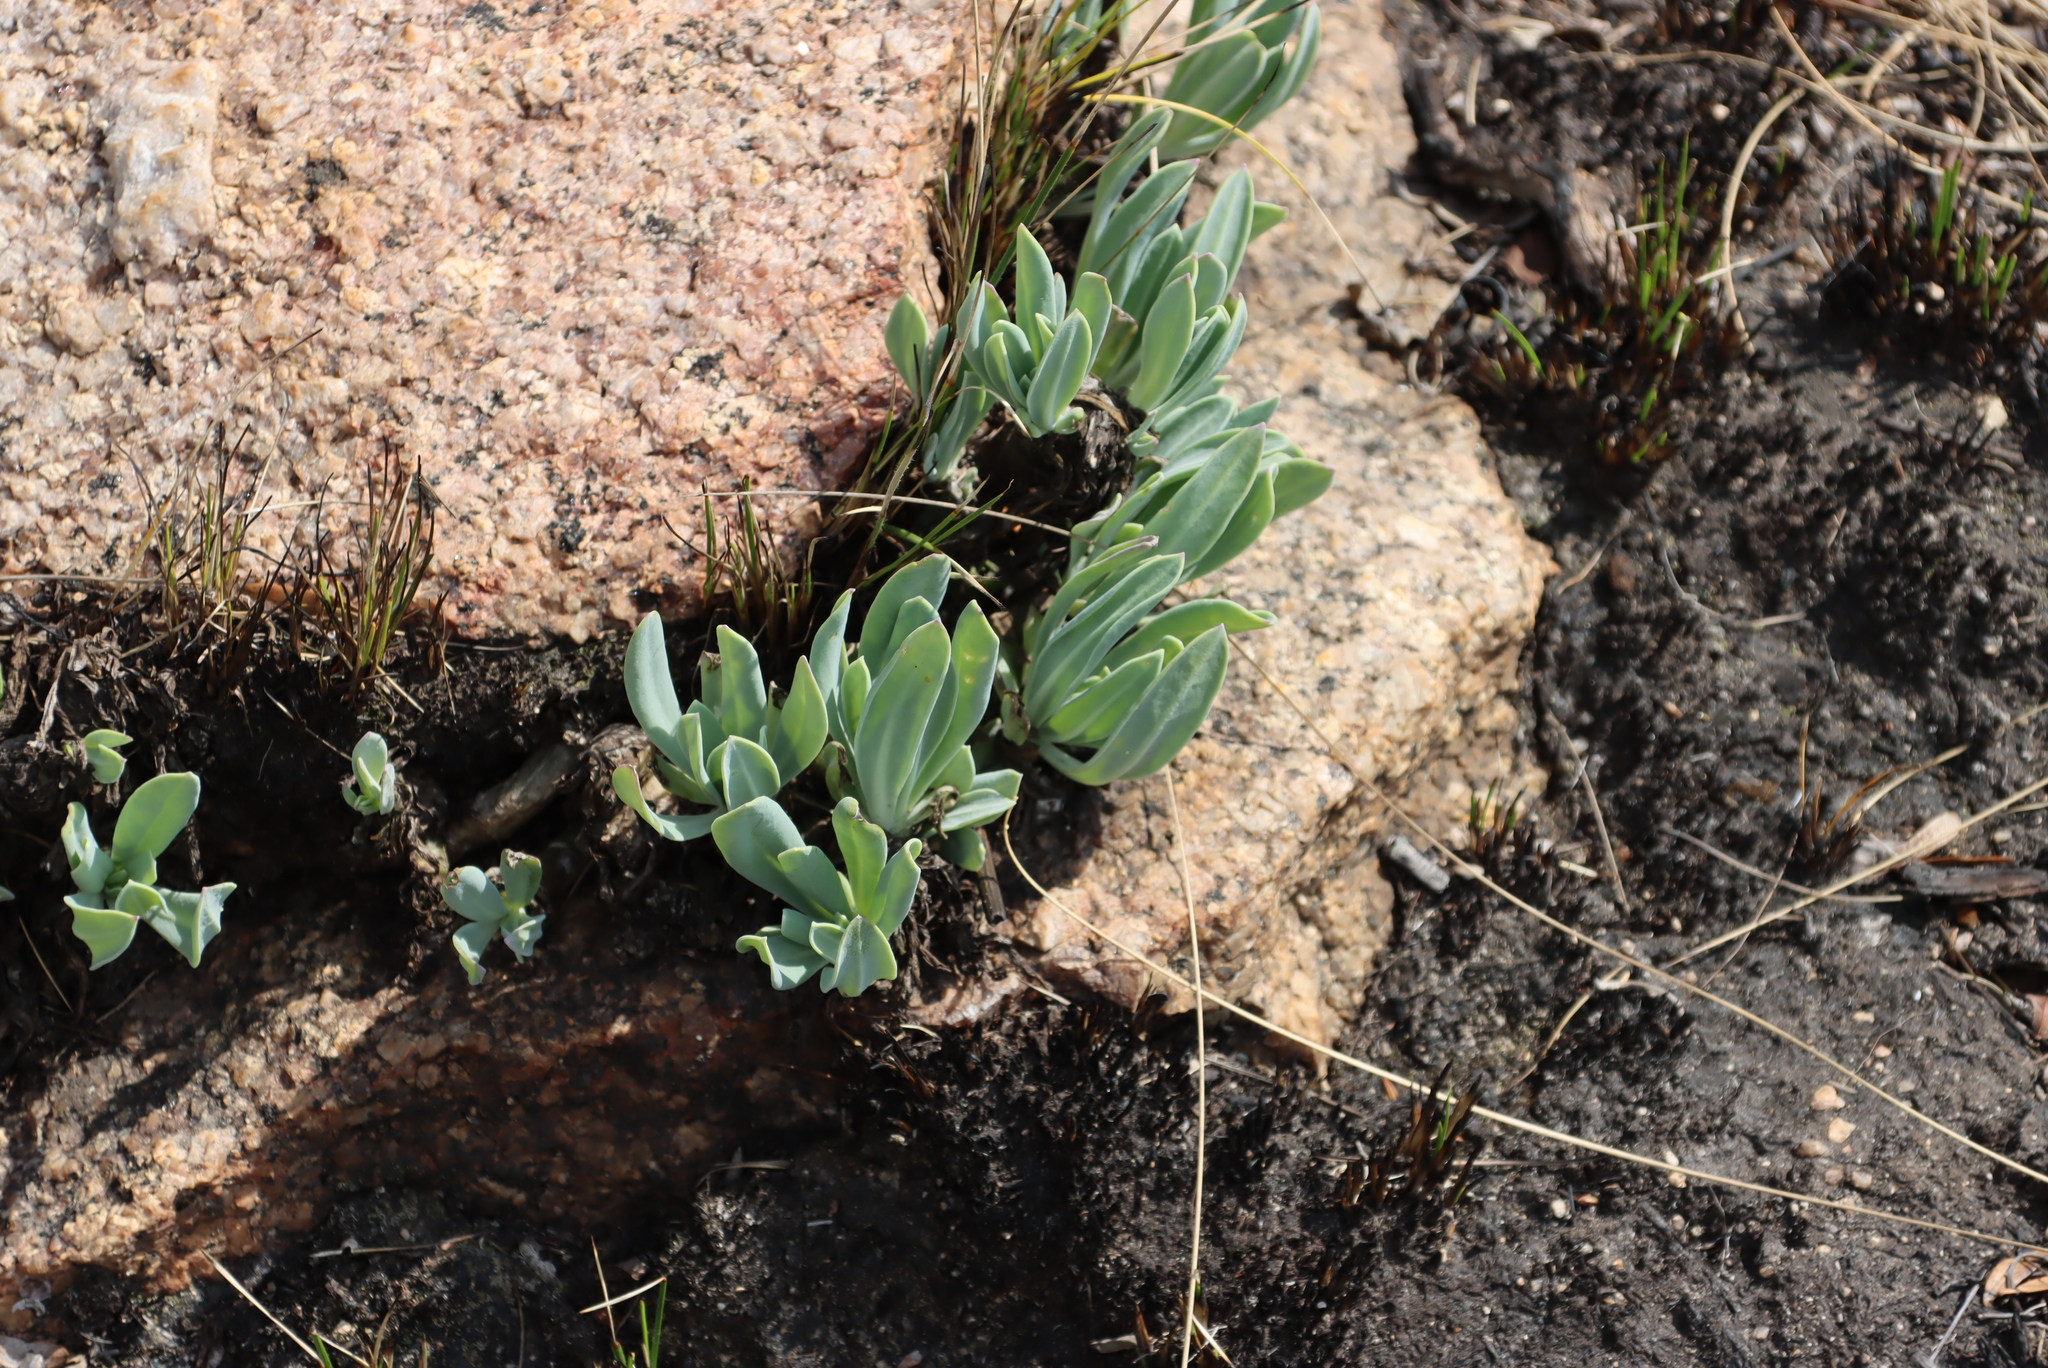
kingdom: Plantae
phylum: Tracheophyta
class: Magnoliopsida
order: Asterales
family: Asteraceae
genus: Kleinia
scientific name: Kleinia galpinii
